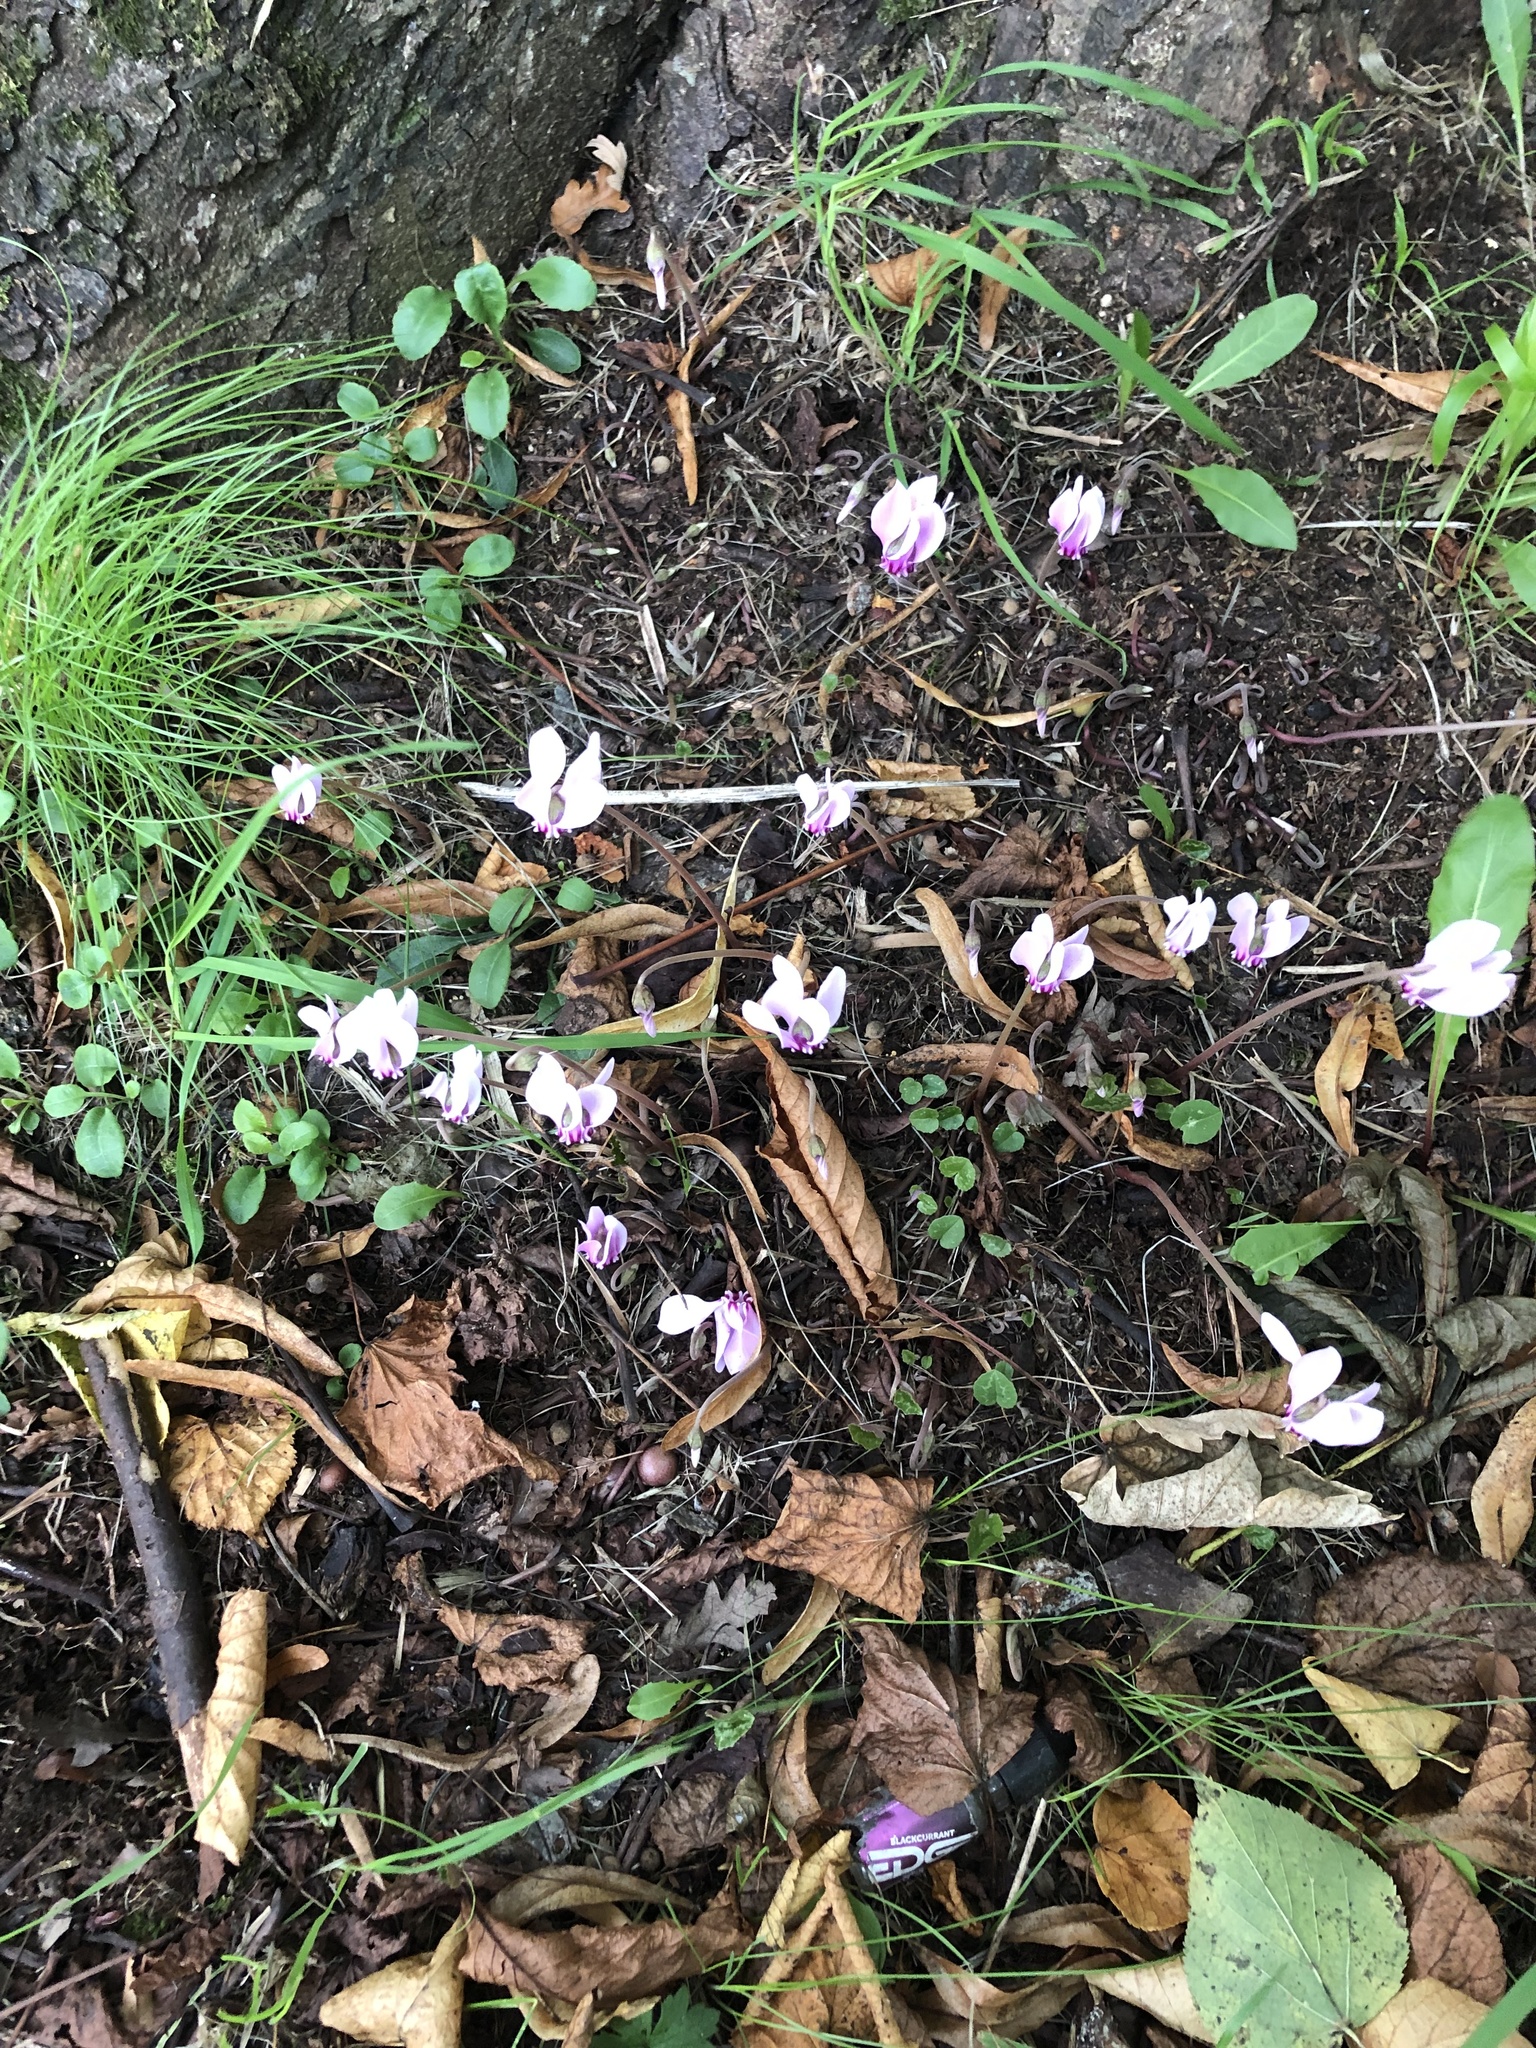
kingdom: Plantae
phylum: Tracheophyta
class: Magnoliopsida
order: Ericales
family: Primulaceae
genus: Cyclamen
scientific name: Cyclamen hederifolium
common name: Sowbread
